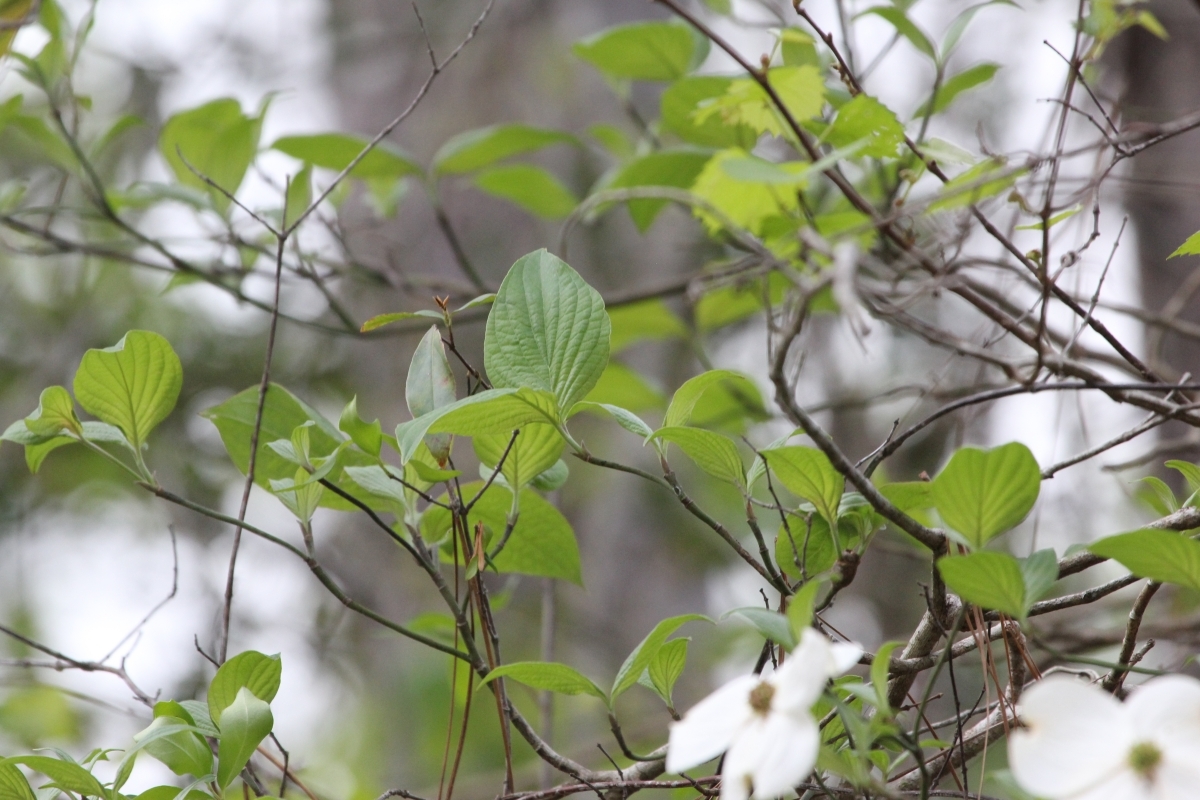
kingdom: Plantae
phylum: Tracheophyta
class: Magnoliopsida
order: Cornales
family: Cornaceae
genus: Cornus
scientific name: Cornus florida
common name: Flowering dogwood
